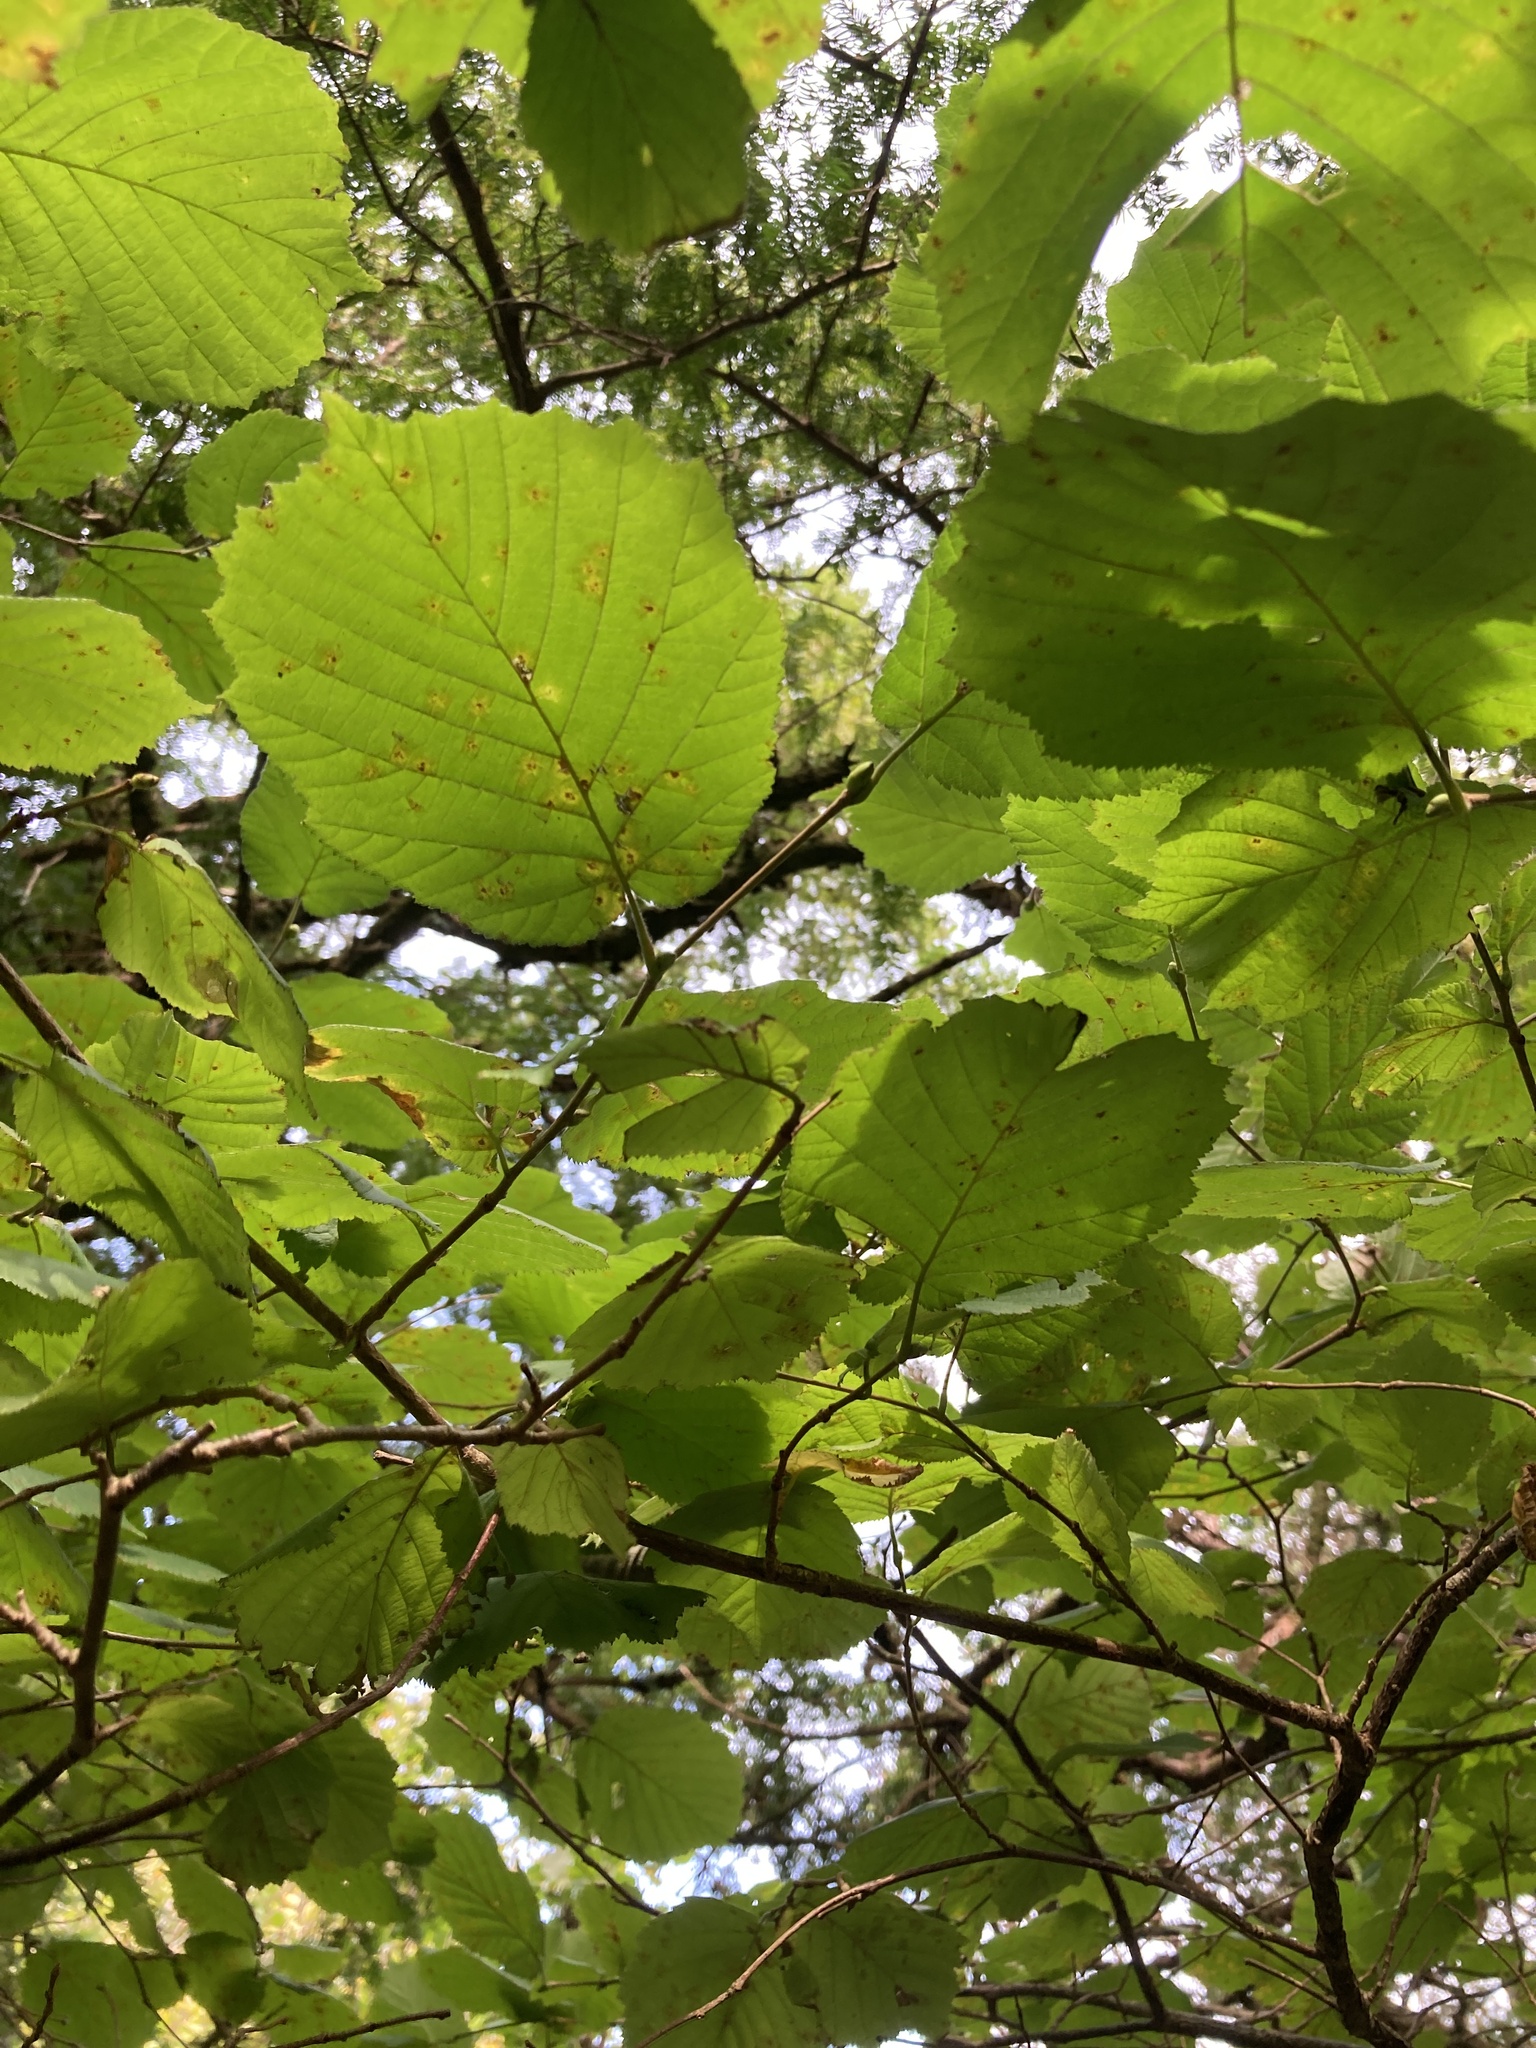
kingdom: Plantae
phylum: Tracheophyta
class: Magnoliopsida
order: Fagales
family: Betulaceae
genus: Corylus
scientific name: Corylus avellana
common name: European hazel
